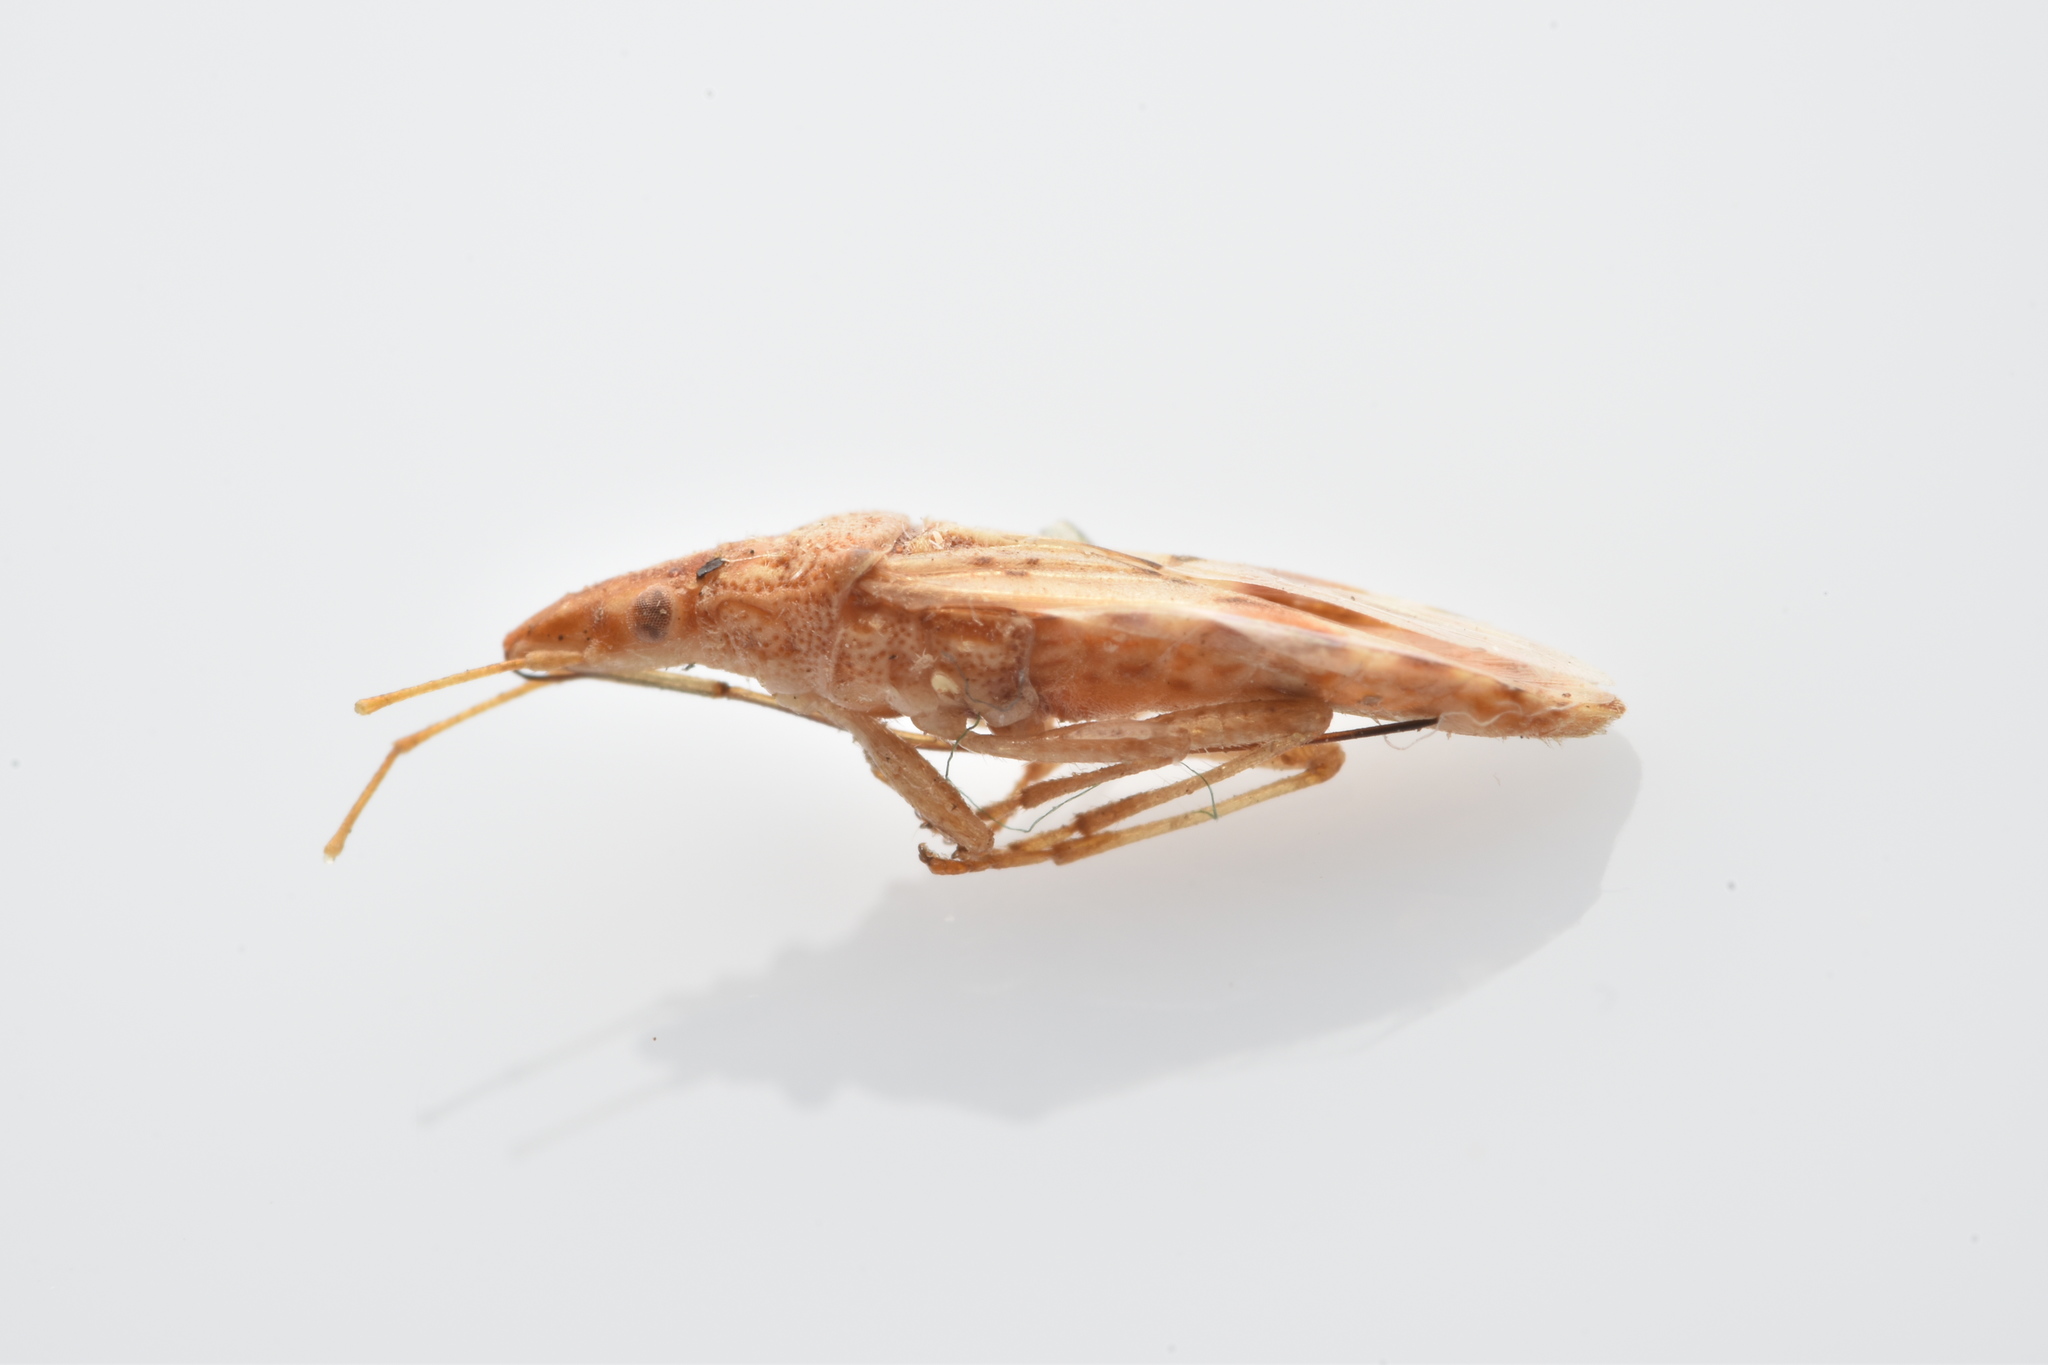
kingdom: Animalia
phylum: Arthropoda
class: Insecta
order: Hemiptera
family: Lygaeidae
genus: Belonochilus
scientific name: Belonochilus numenius
